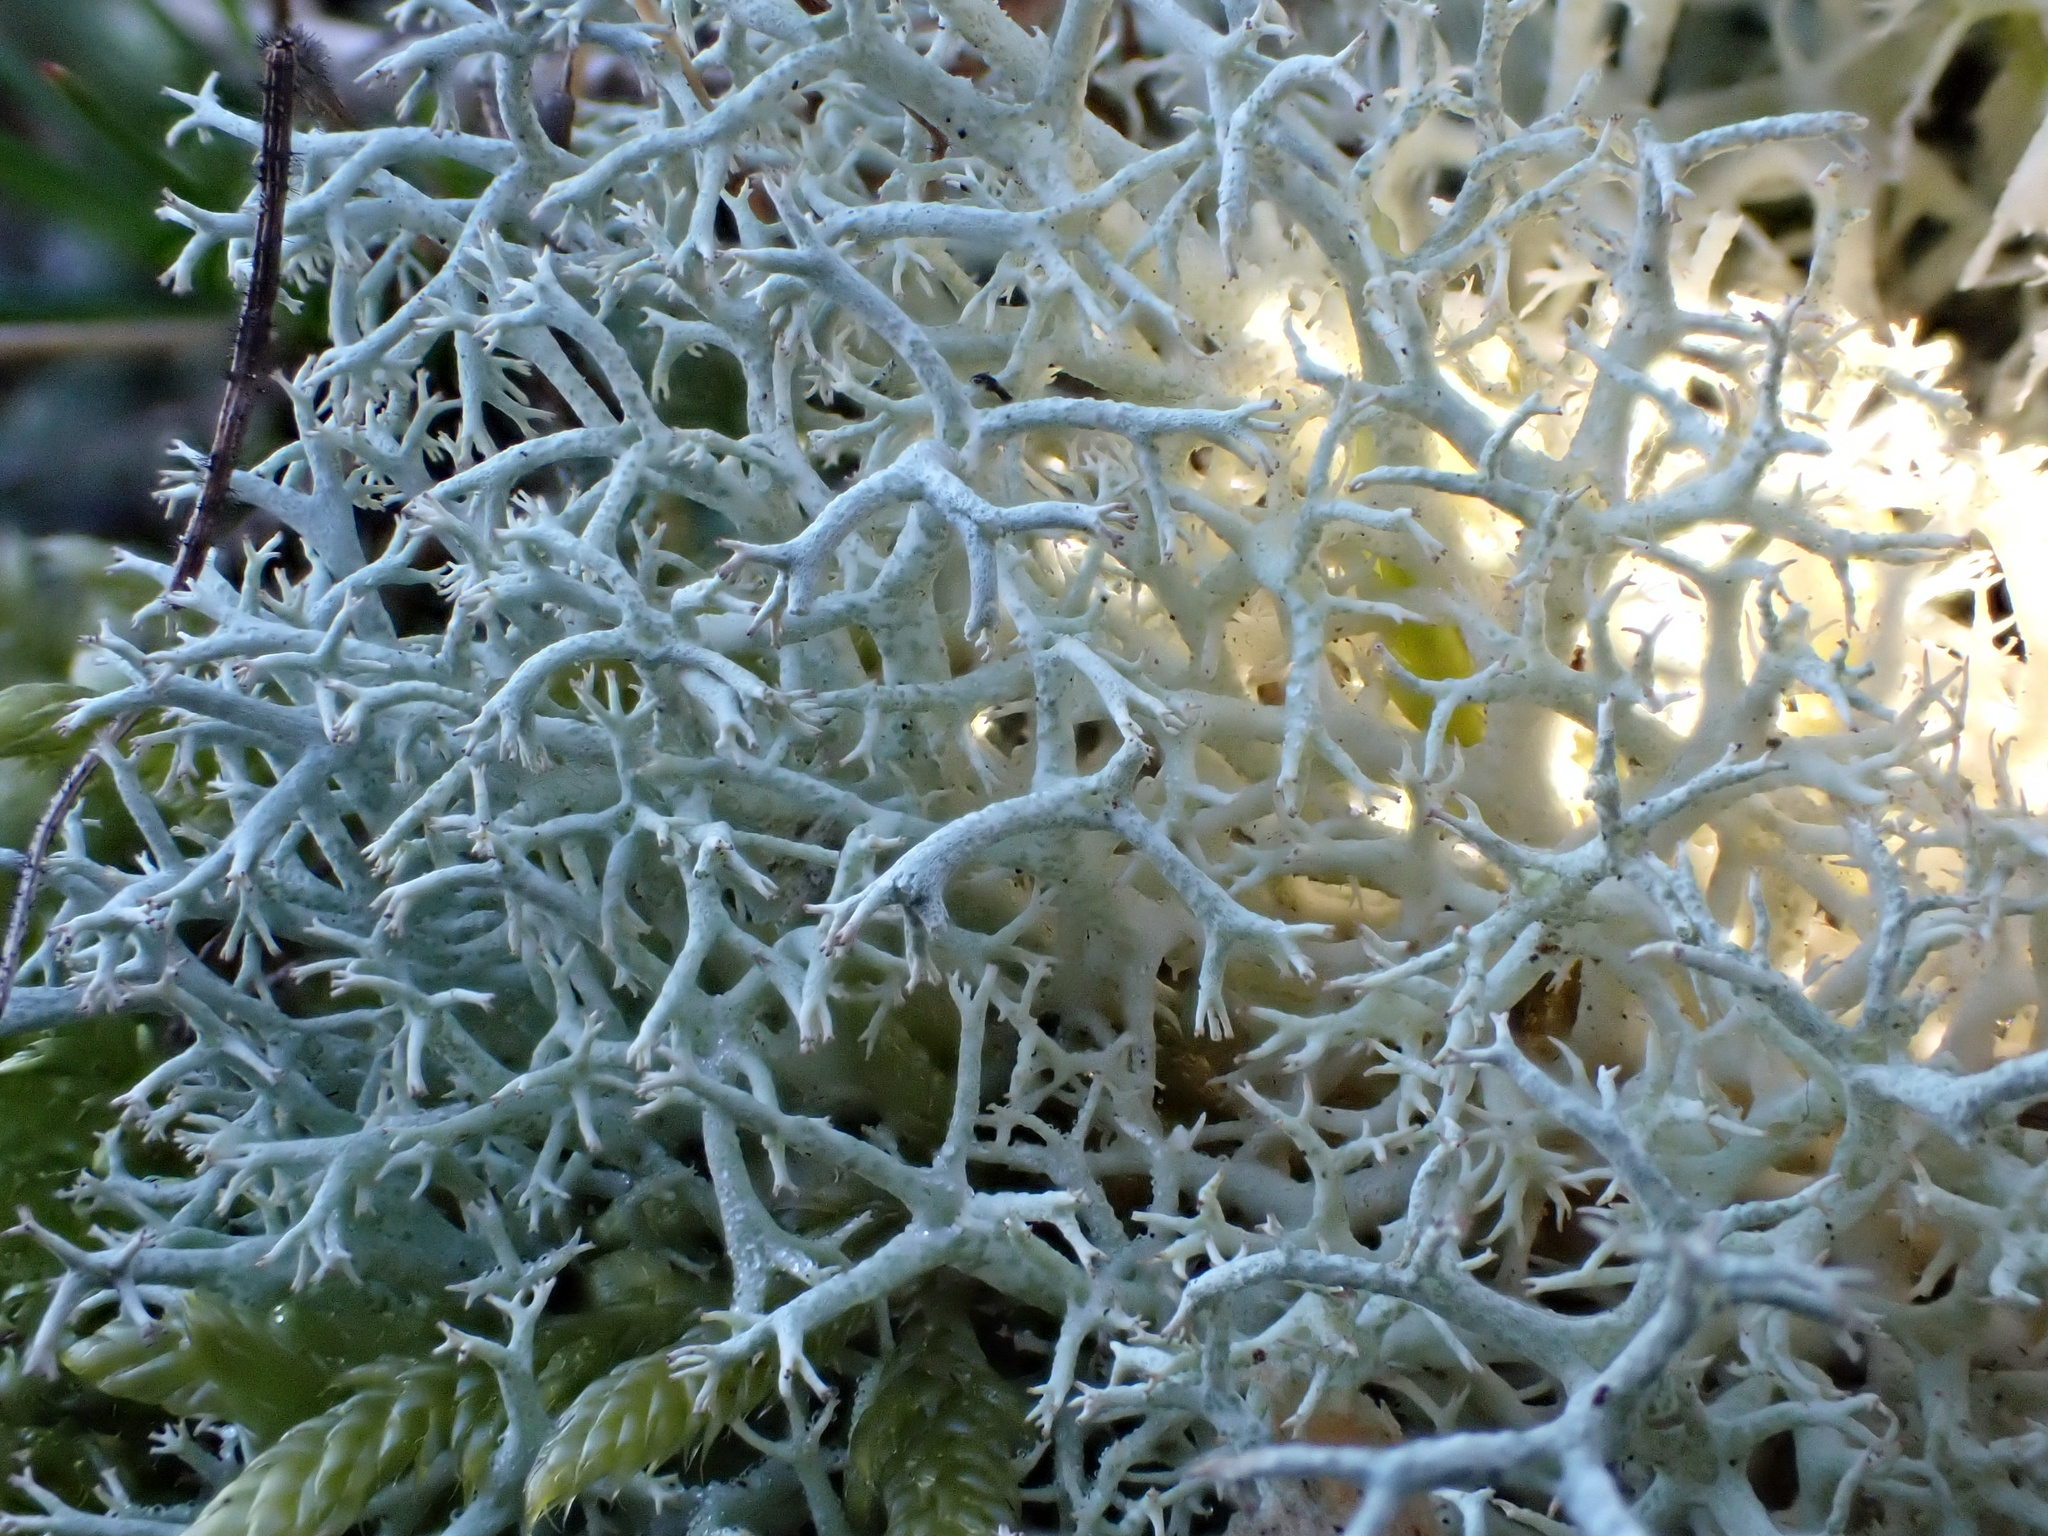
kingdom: Fungi
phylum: Ascomycota
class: Lecanoromycetes
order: Lecanorales
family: Cladoniaceae
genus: Cladonia
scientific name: Cladonia portentosa
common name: Reindeer lichen
